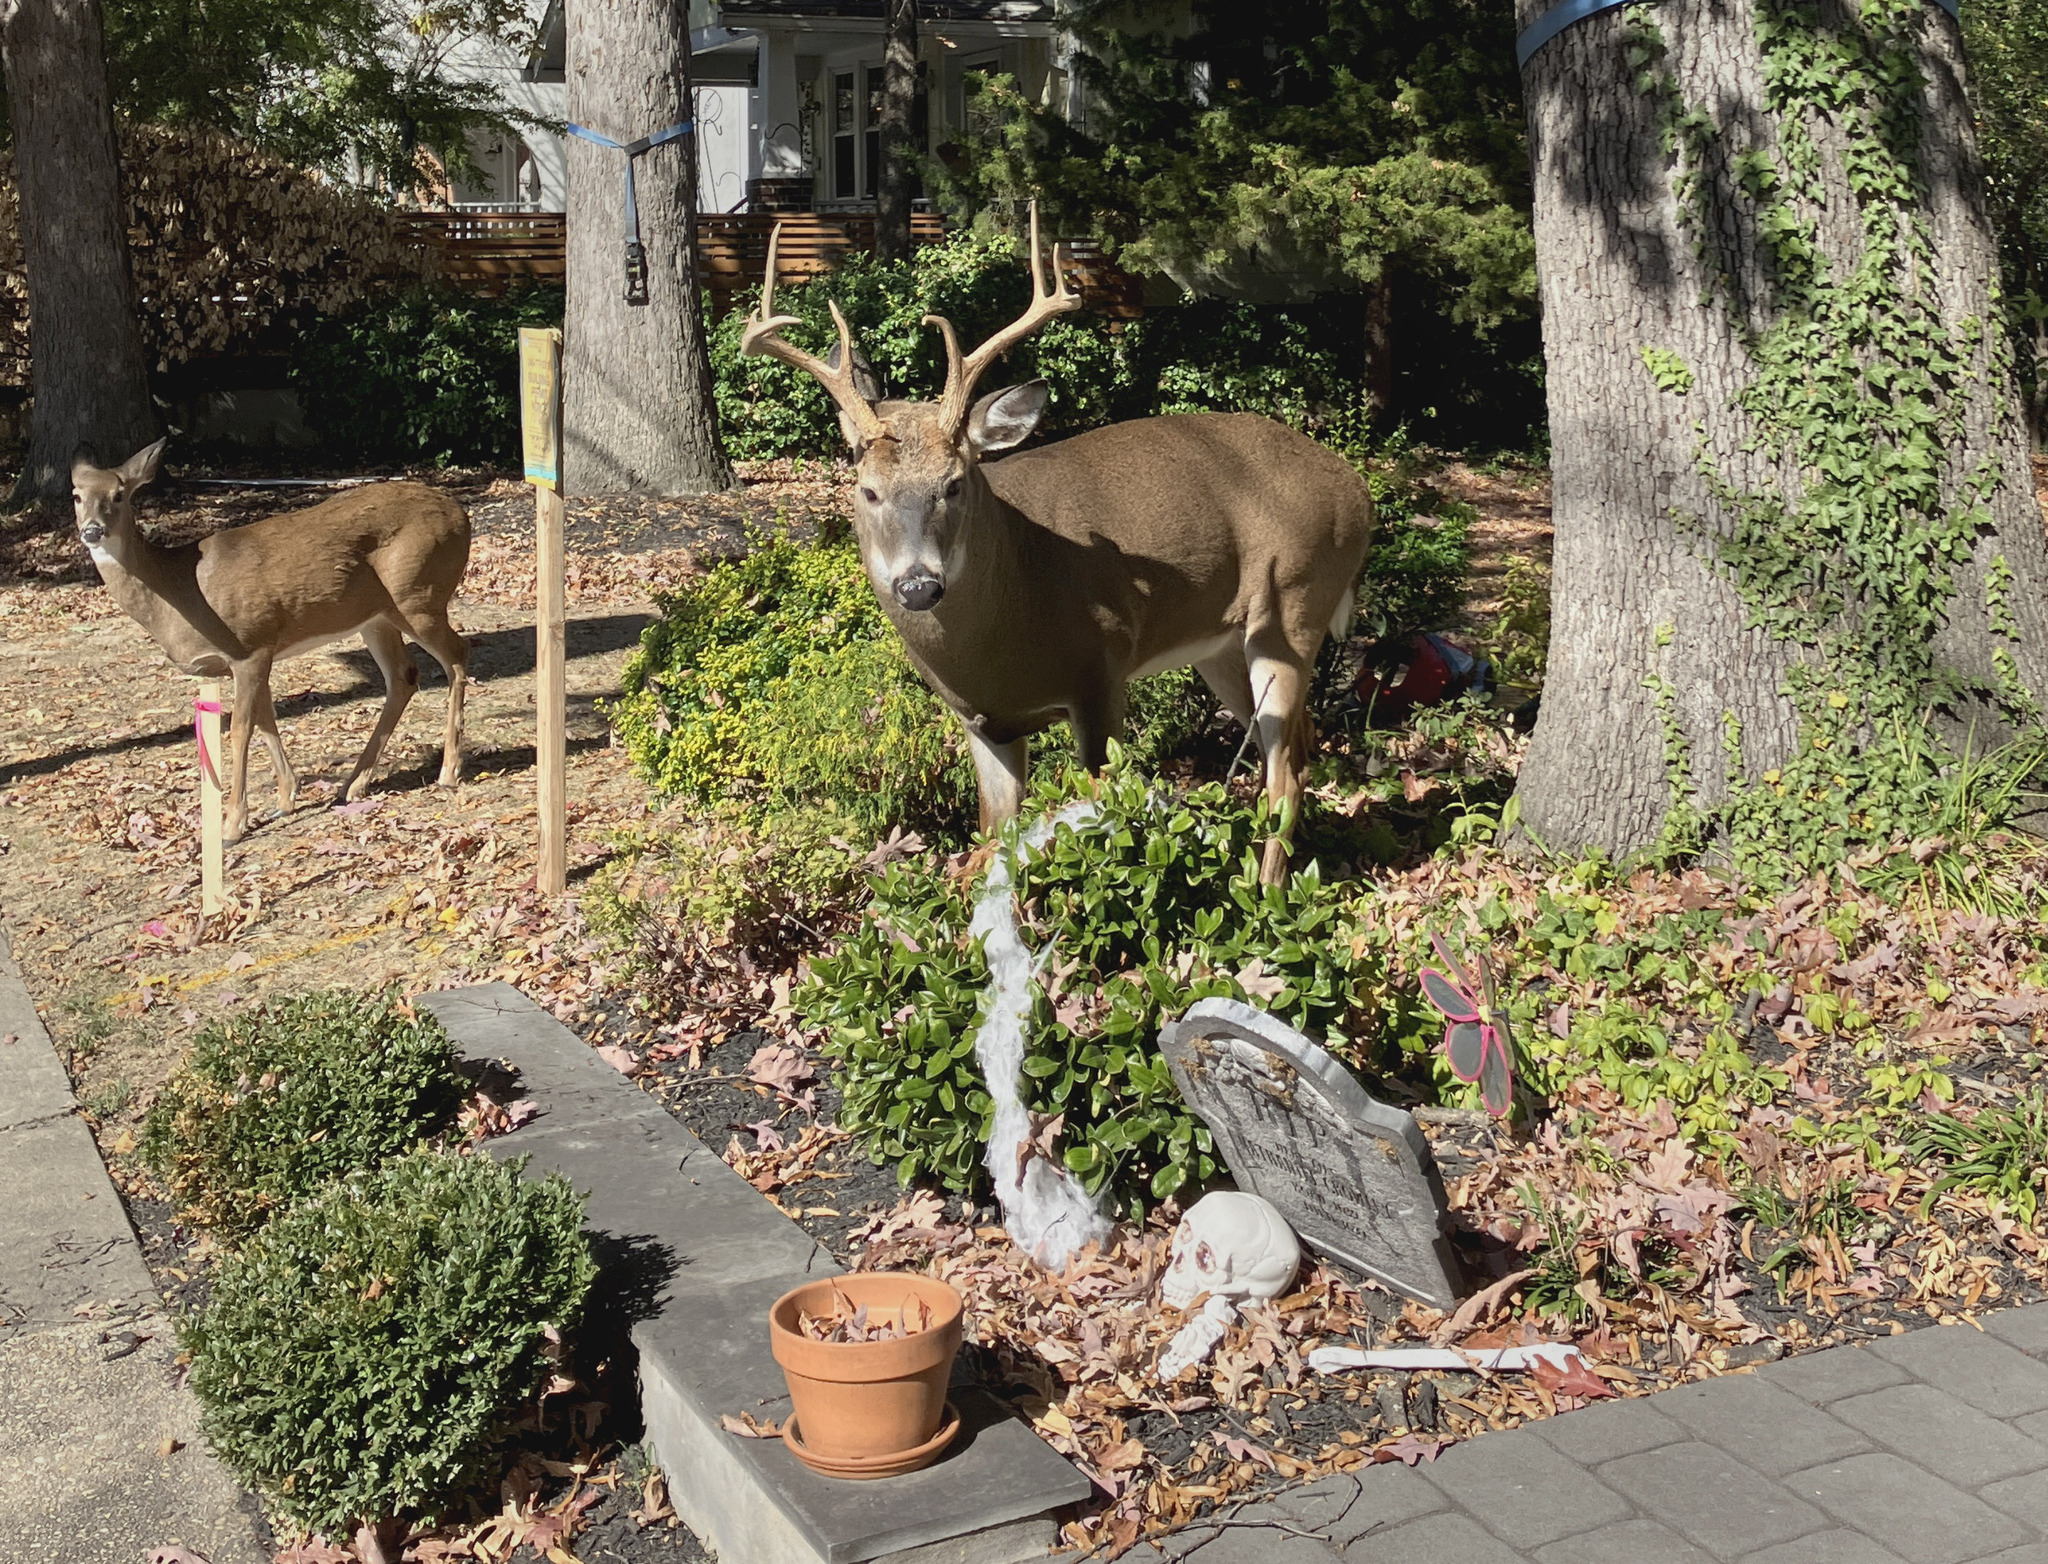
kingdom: Animalia
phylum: Chordata
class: Mammalia
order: Artiodactyla
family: Cervidae
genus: Odocoileus
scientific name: Odocoileus virginianus
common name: White-tailed deer
